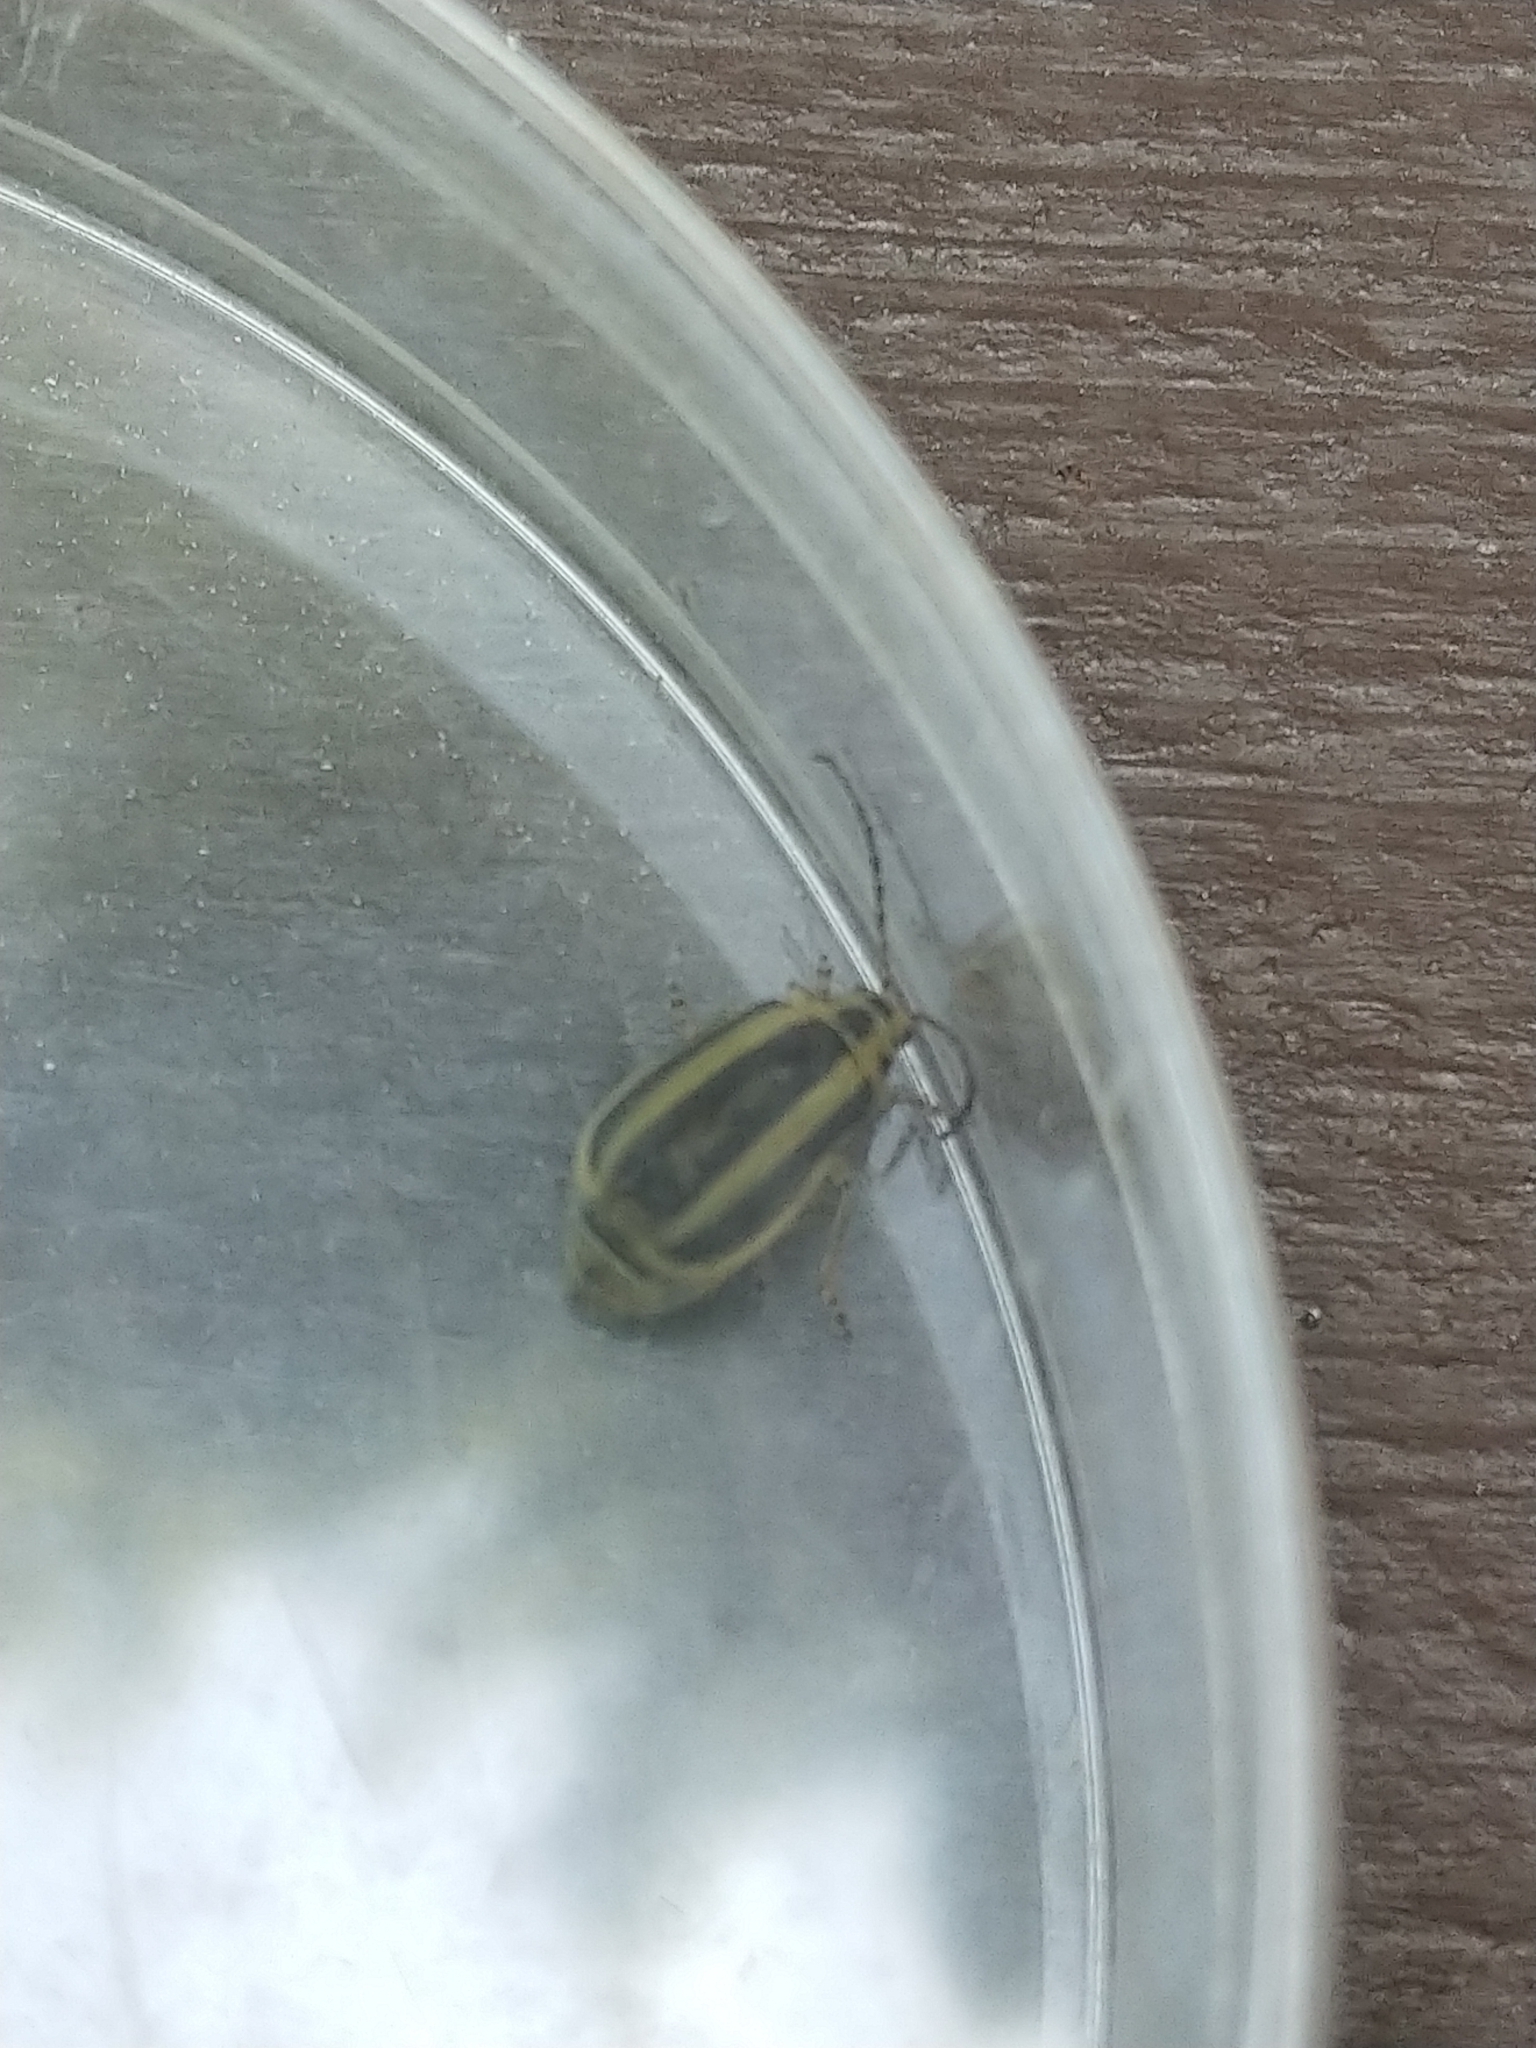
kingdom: Animalia
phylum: Arthropoda
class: Insecta
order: Coleoptera
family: Chrysomelidae
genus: Trirhabda
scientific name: Trirhabda canadensis
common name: Goldenrod leaf beetle
